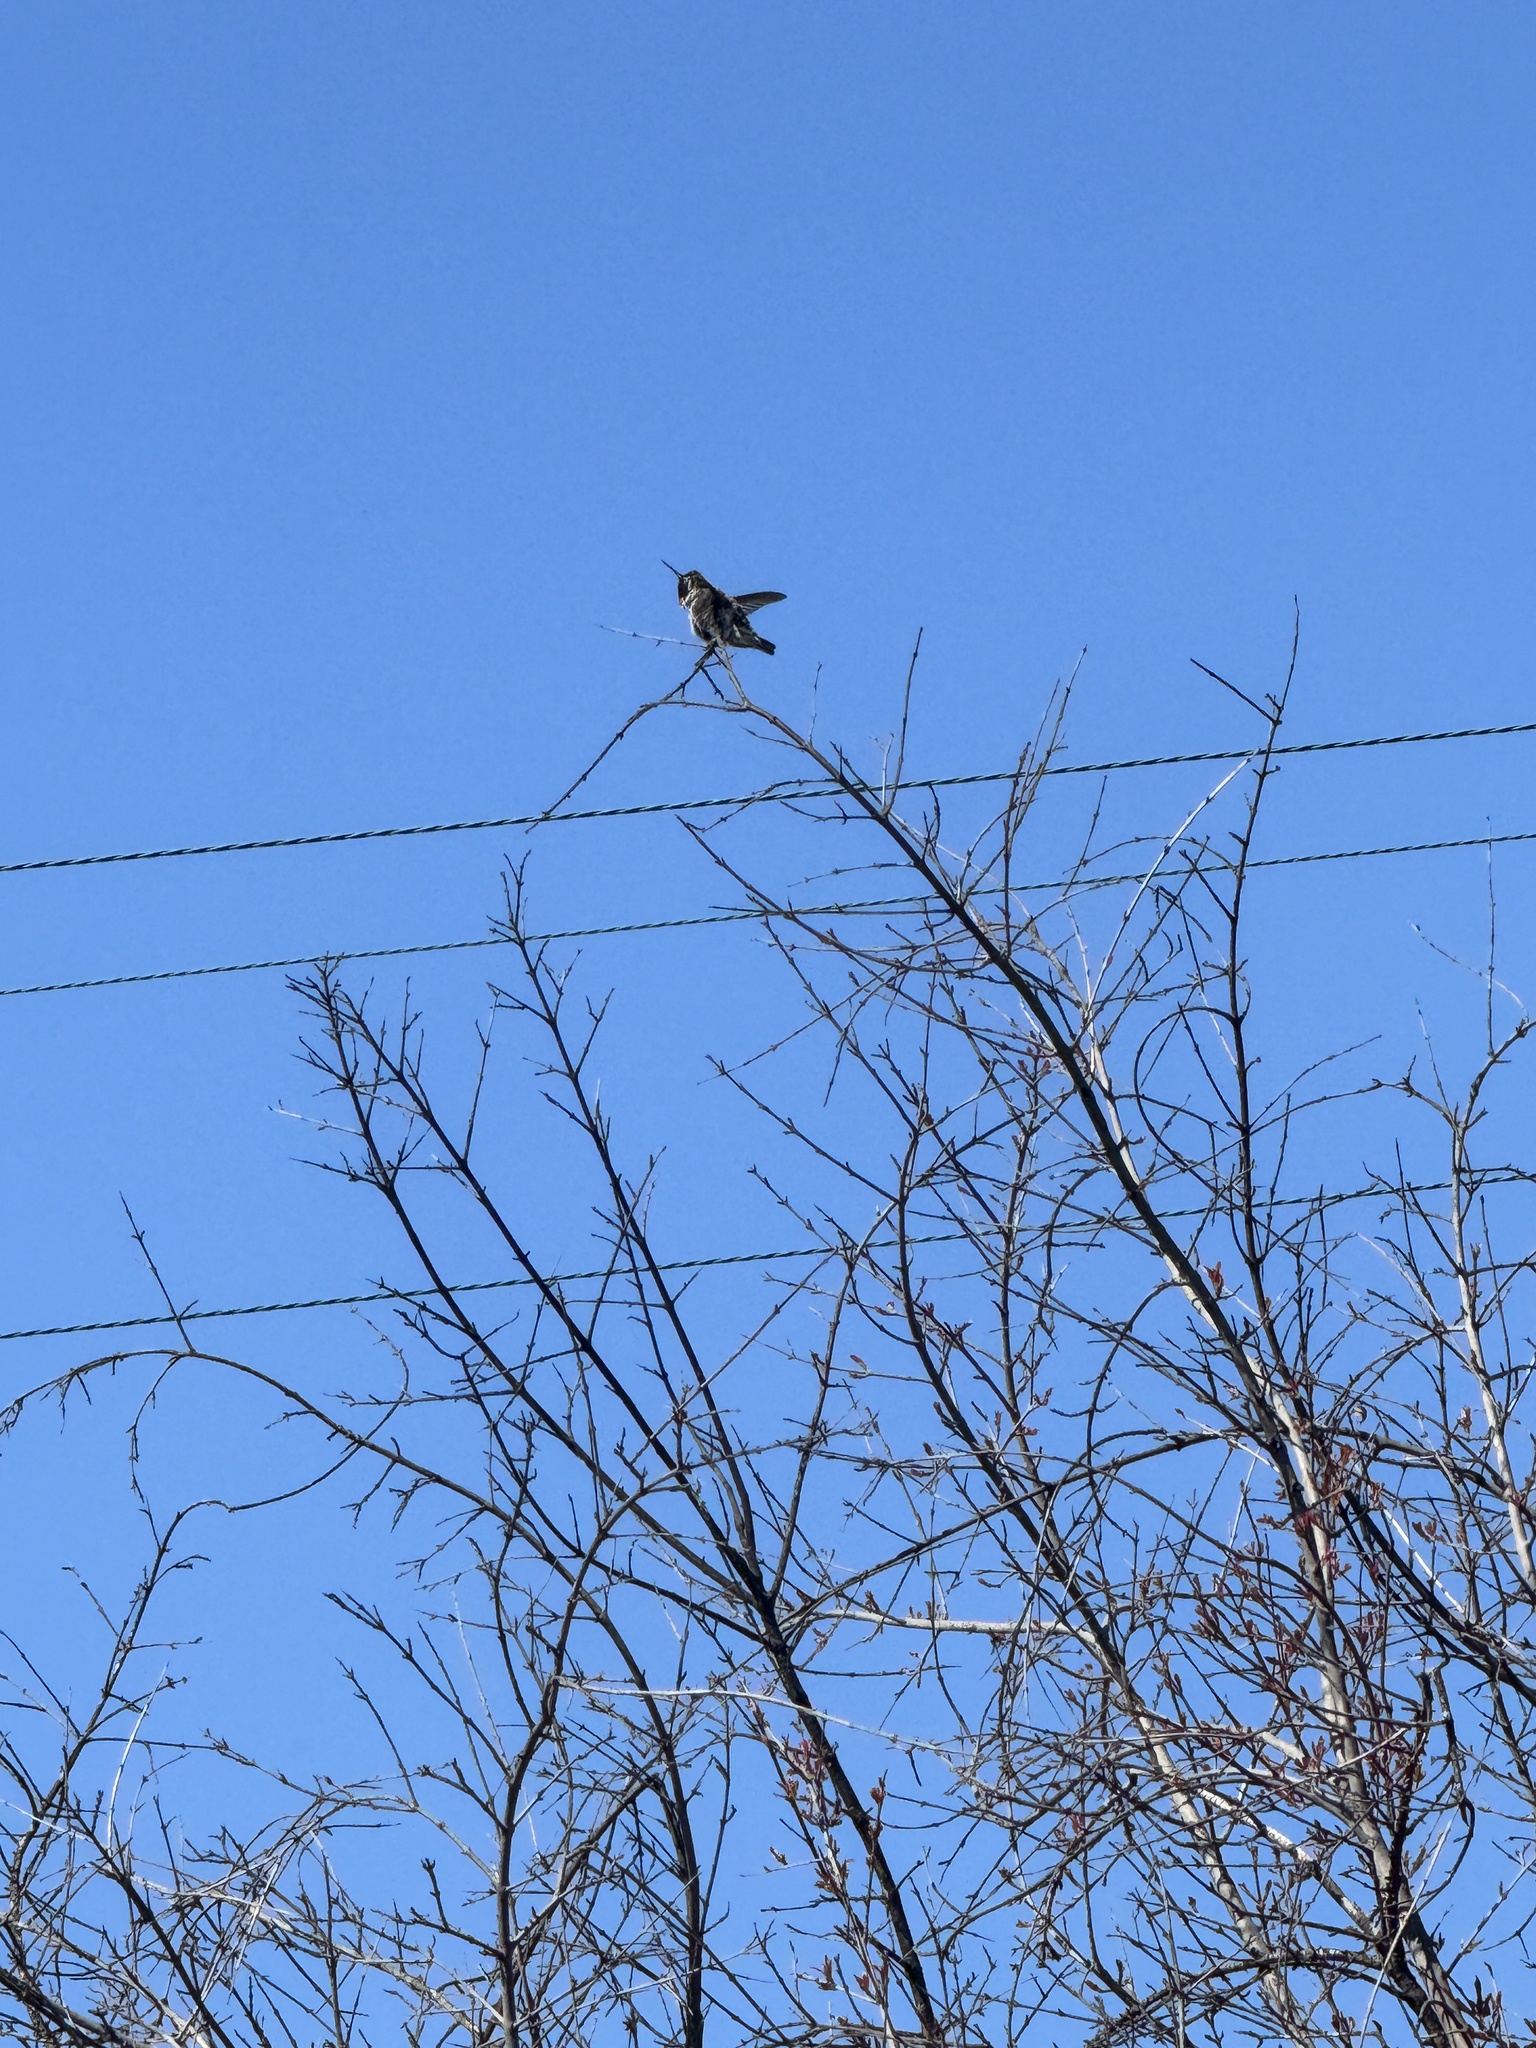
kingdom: Animalia
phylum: Chordata
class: Aves
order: Apodiformes
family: Trochilidae
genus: Calypte
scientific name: Calypte anna
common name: Anna's hummingbird
